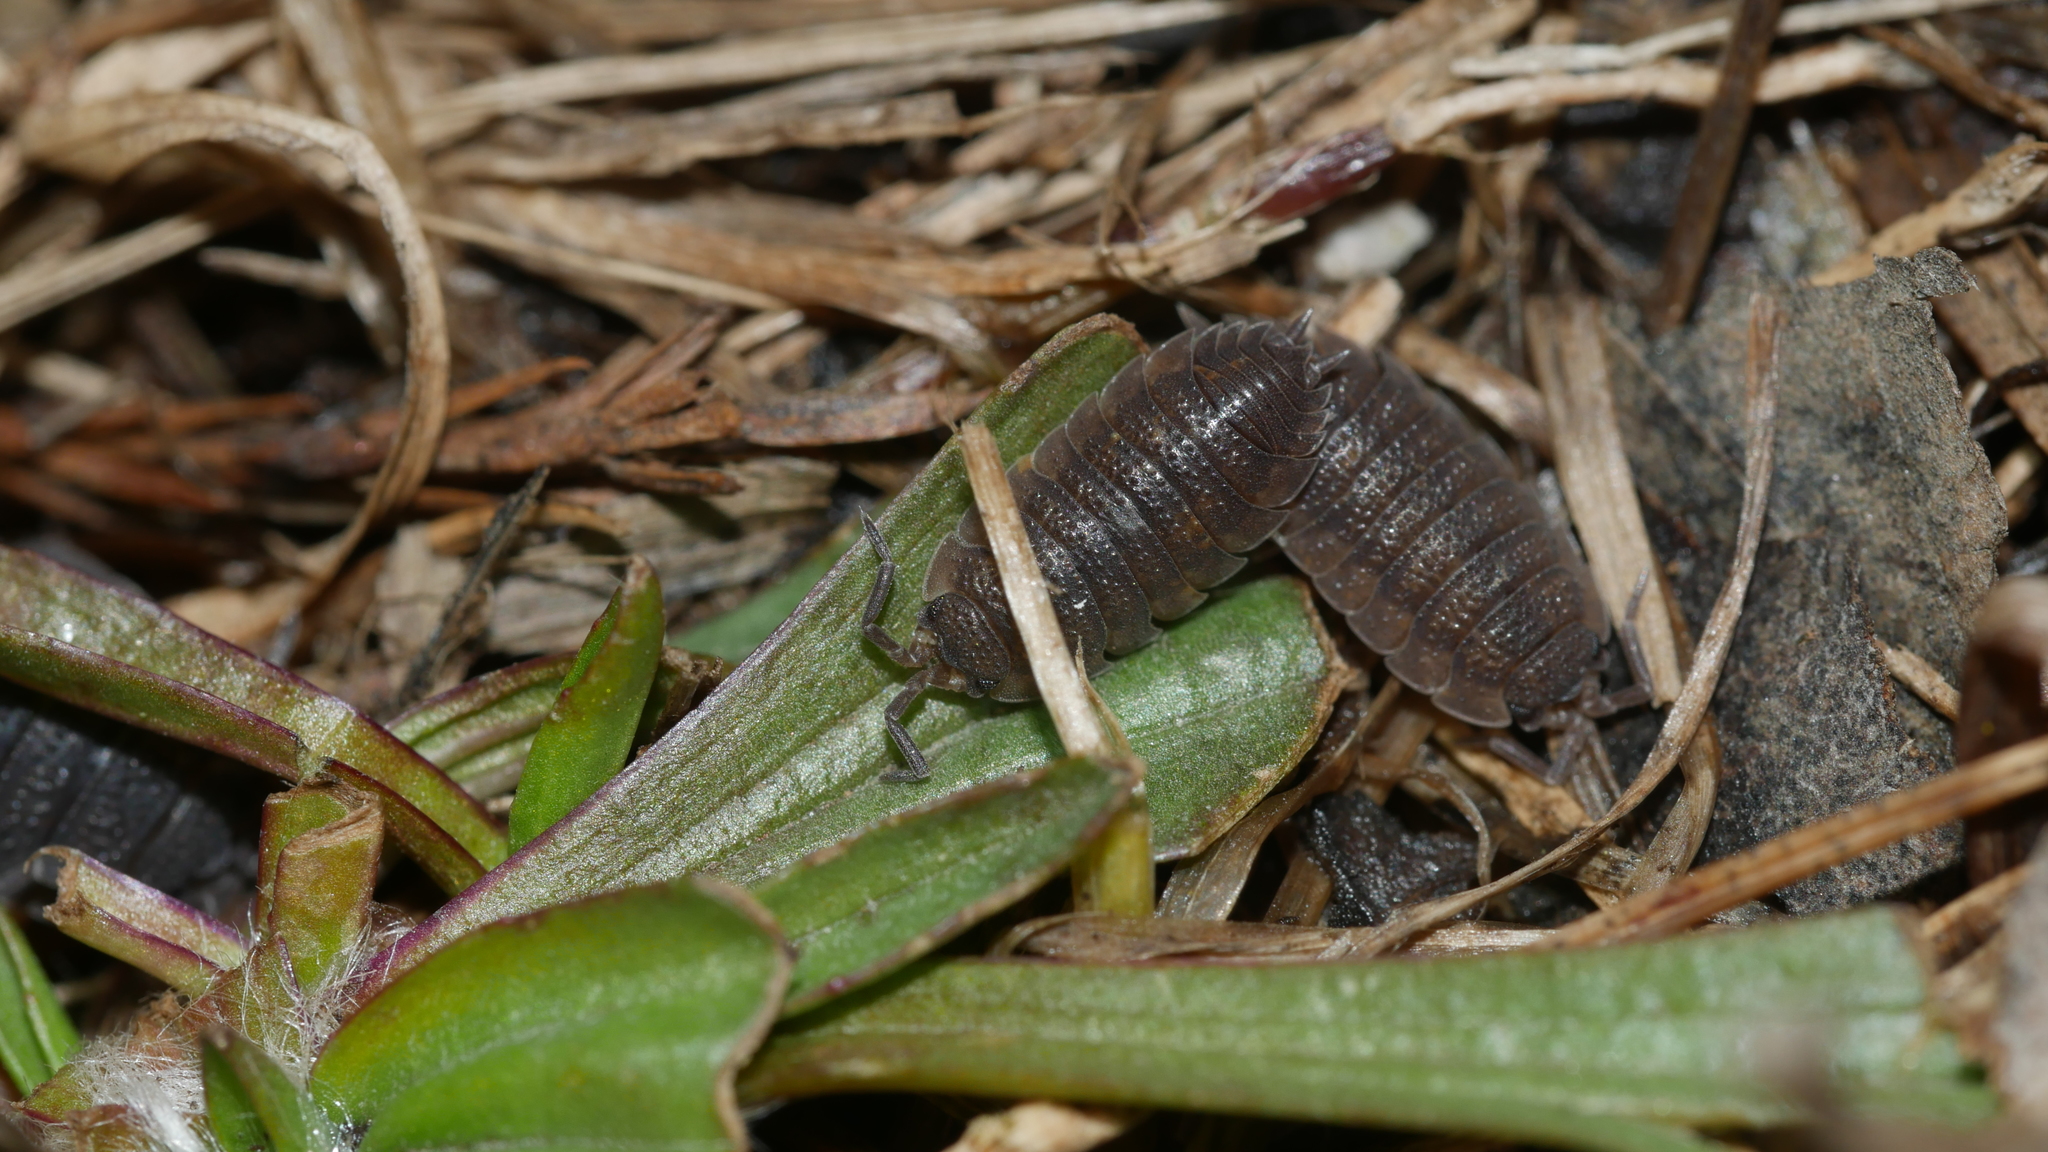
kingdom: Animalia
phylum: Arthropoda
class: Malacostraca
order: Isopoda
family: Porcellionidae
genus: Porcellio
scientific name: Porcellio scaber
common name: Common rough woodlouse
